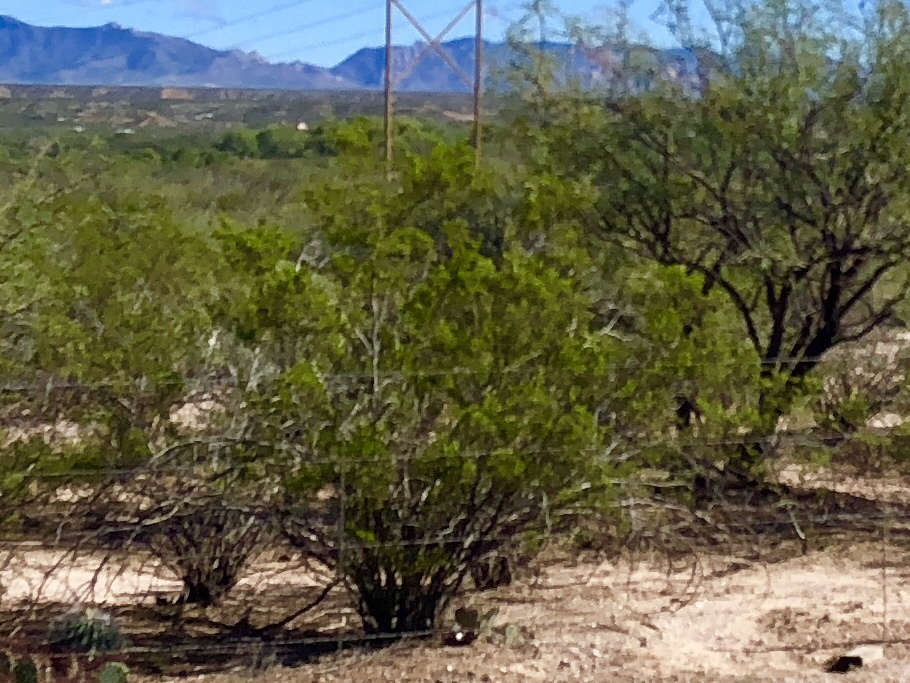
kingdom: Plantae
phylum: Tracheophyta
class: Magnoliopsida
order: Zygophyllales
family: Zygophyllaceae
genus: Larrea
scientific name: Larrea tridentata
